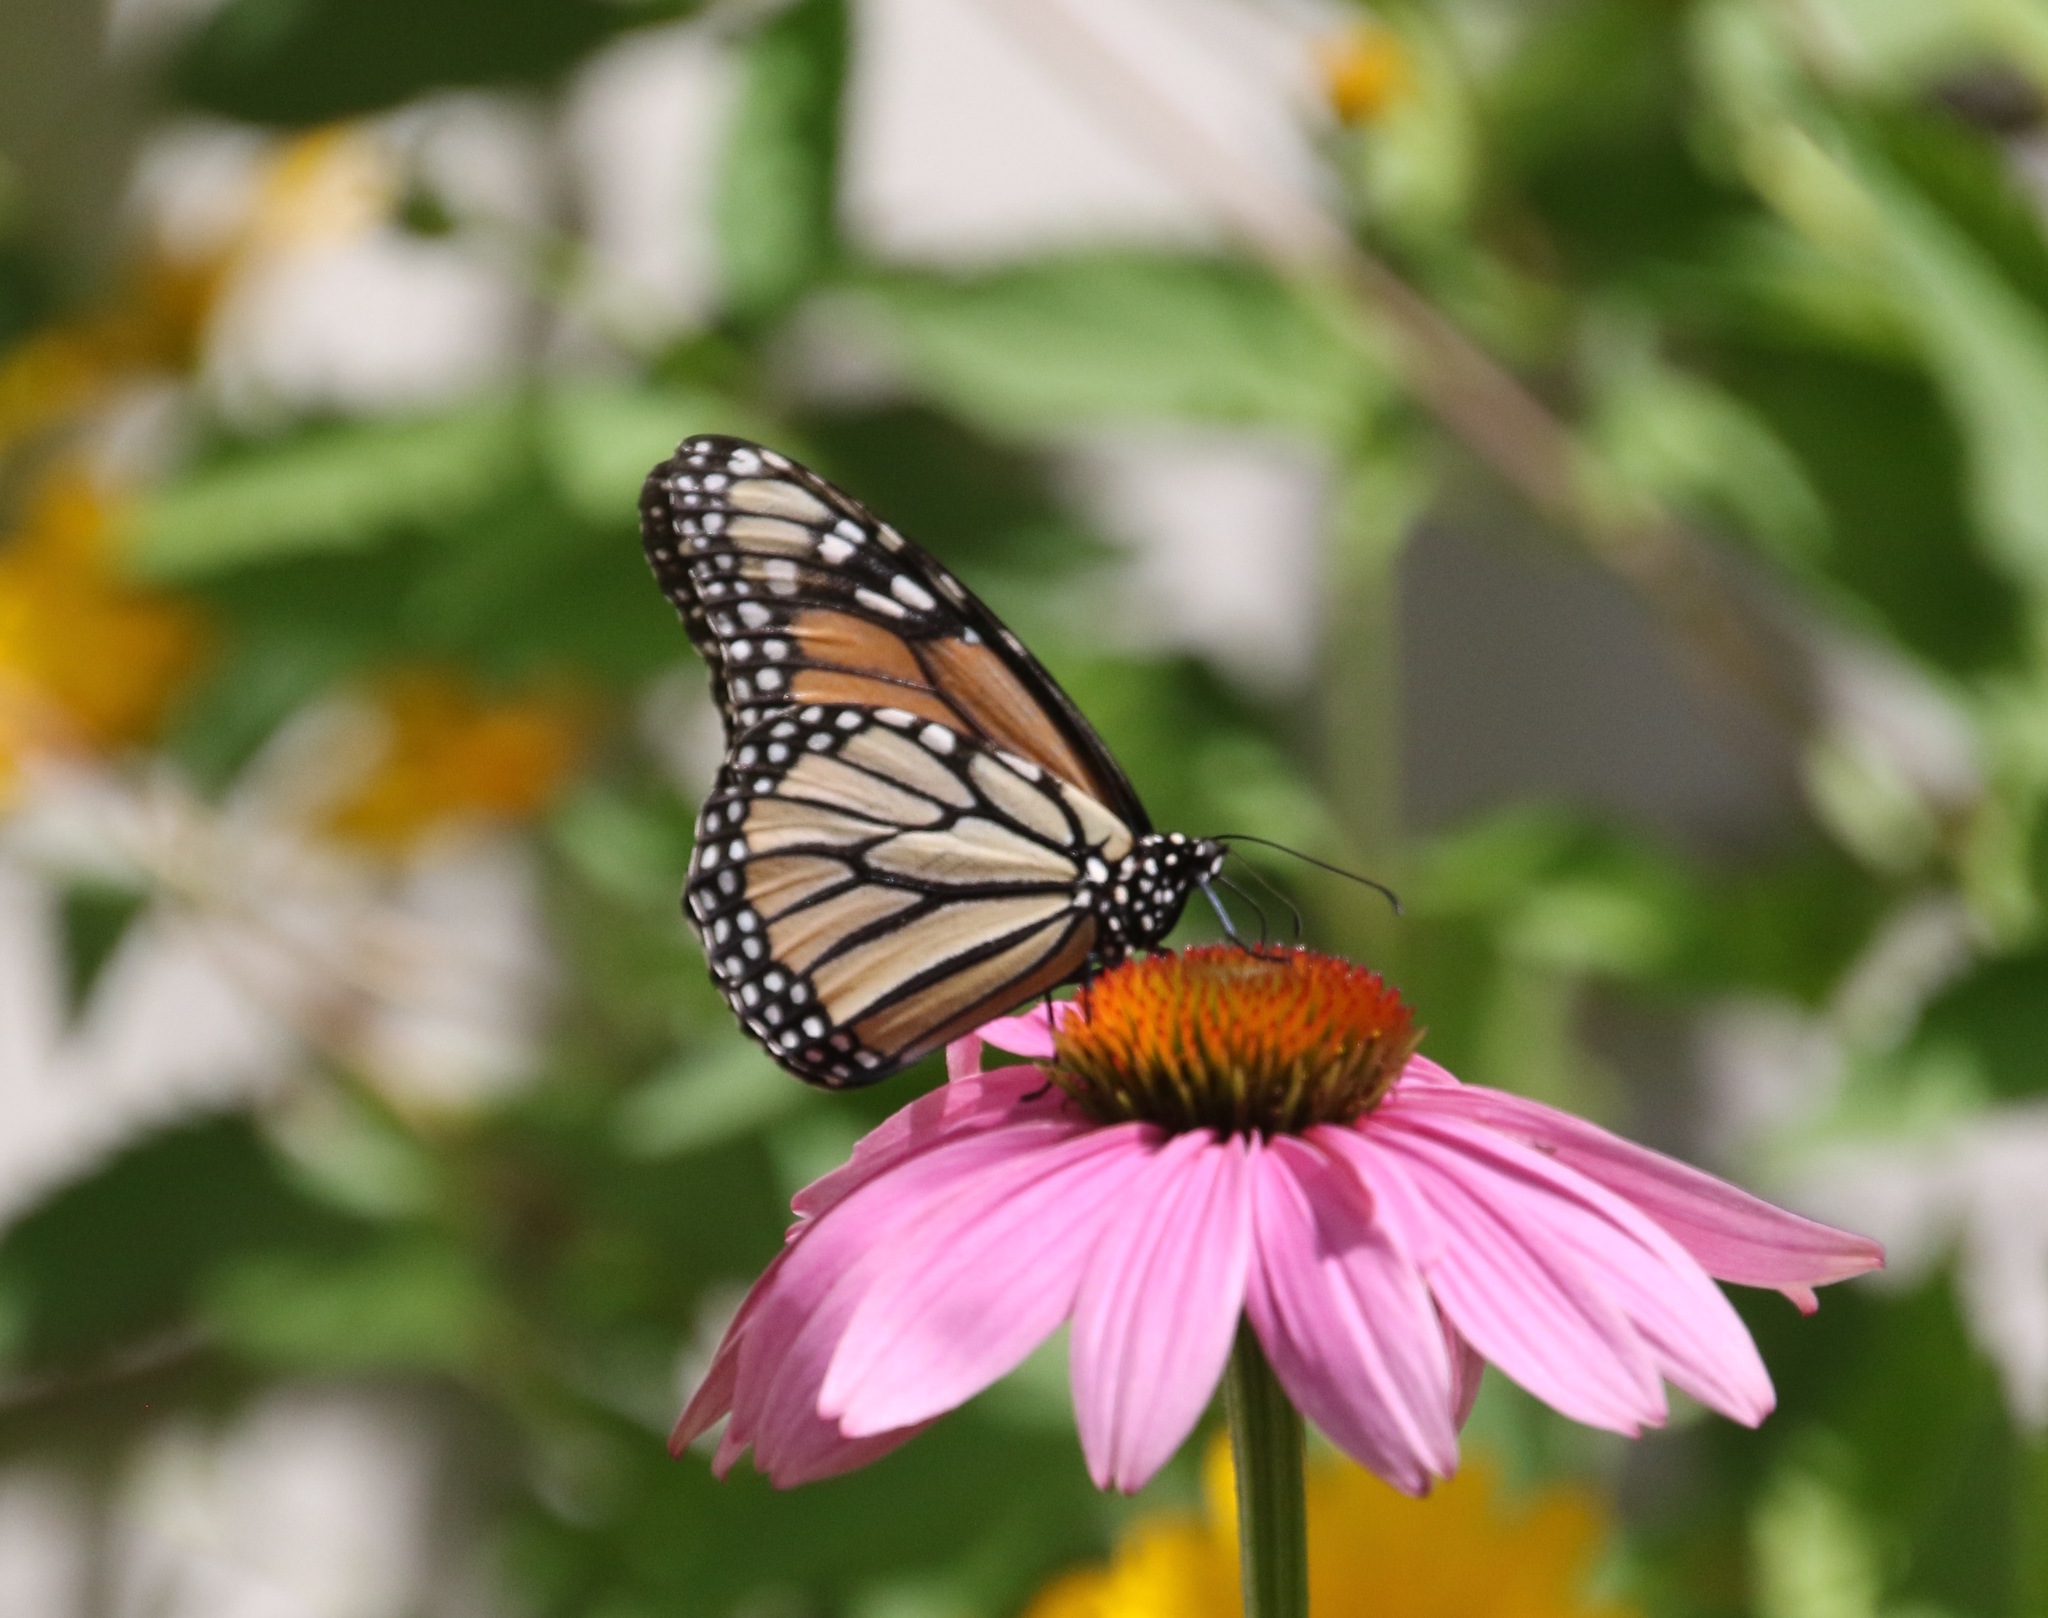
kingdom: Animalia
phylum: Arthropoda
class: Insecta
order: Lepidoptera
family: Nymphalidae
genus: Danaus
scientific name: Danaus plexippus
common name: Monarch
